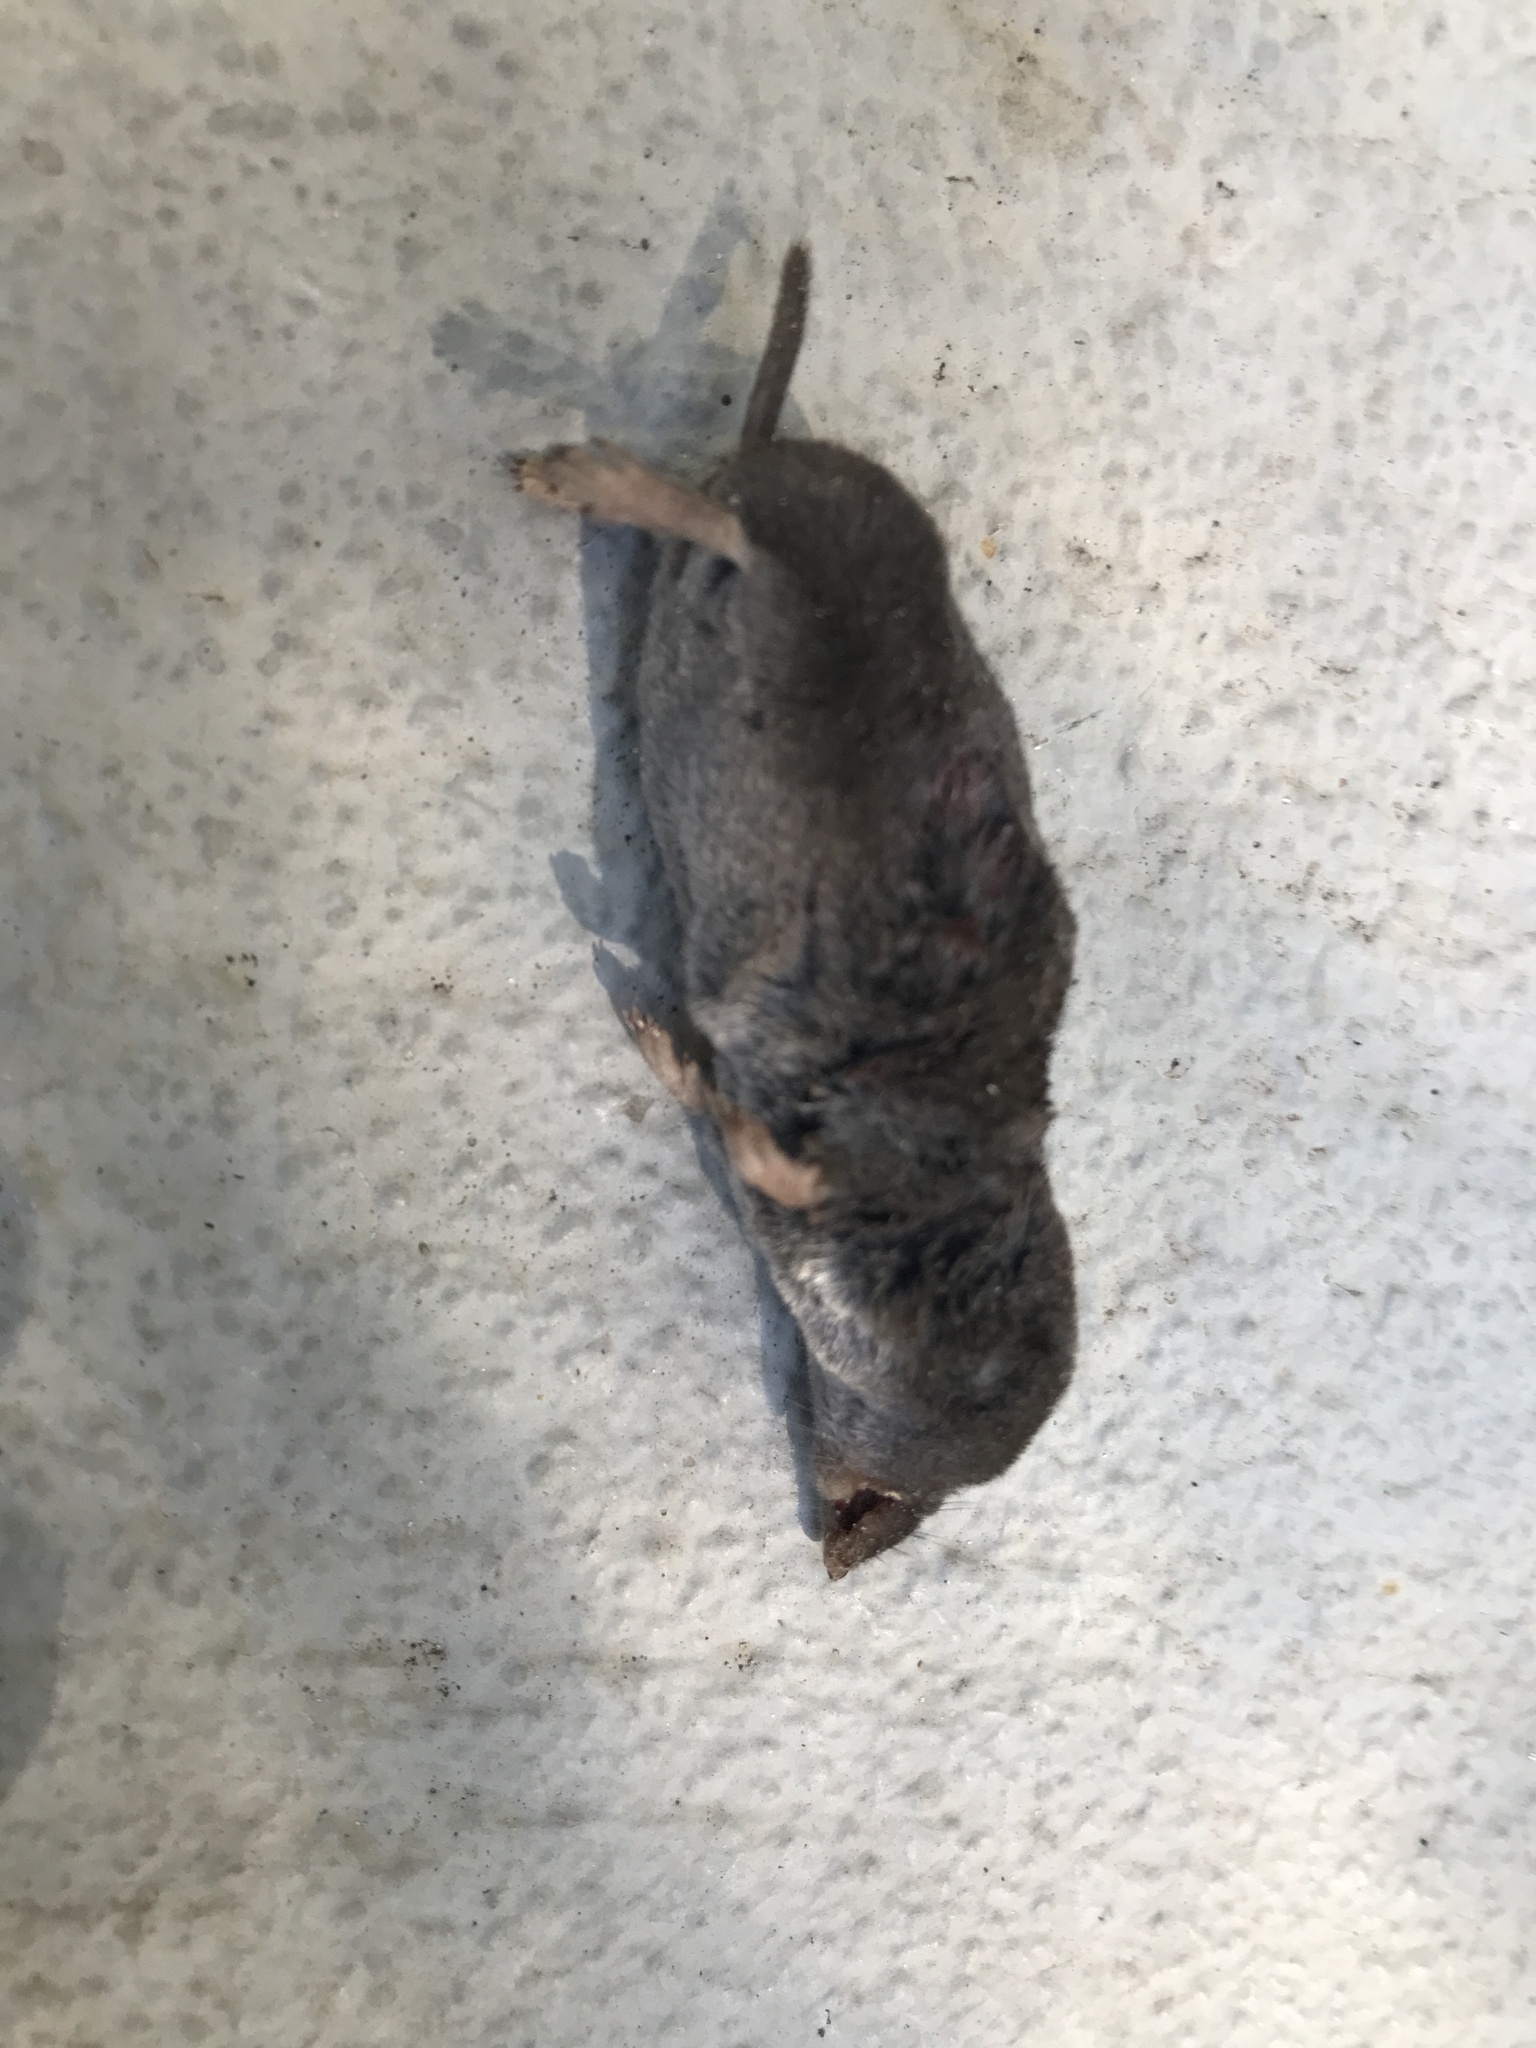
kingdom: Animalia
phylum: Chordata
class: Mammalia
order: Soricomorpha
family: Soricidae
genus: Blarina
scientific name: Blarina carolinensis
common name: Southern short-tailed shrew
